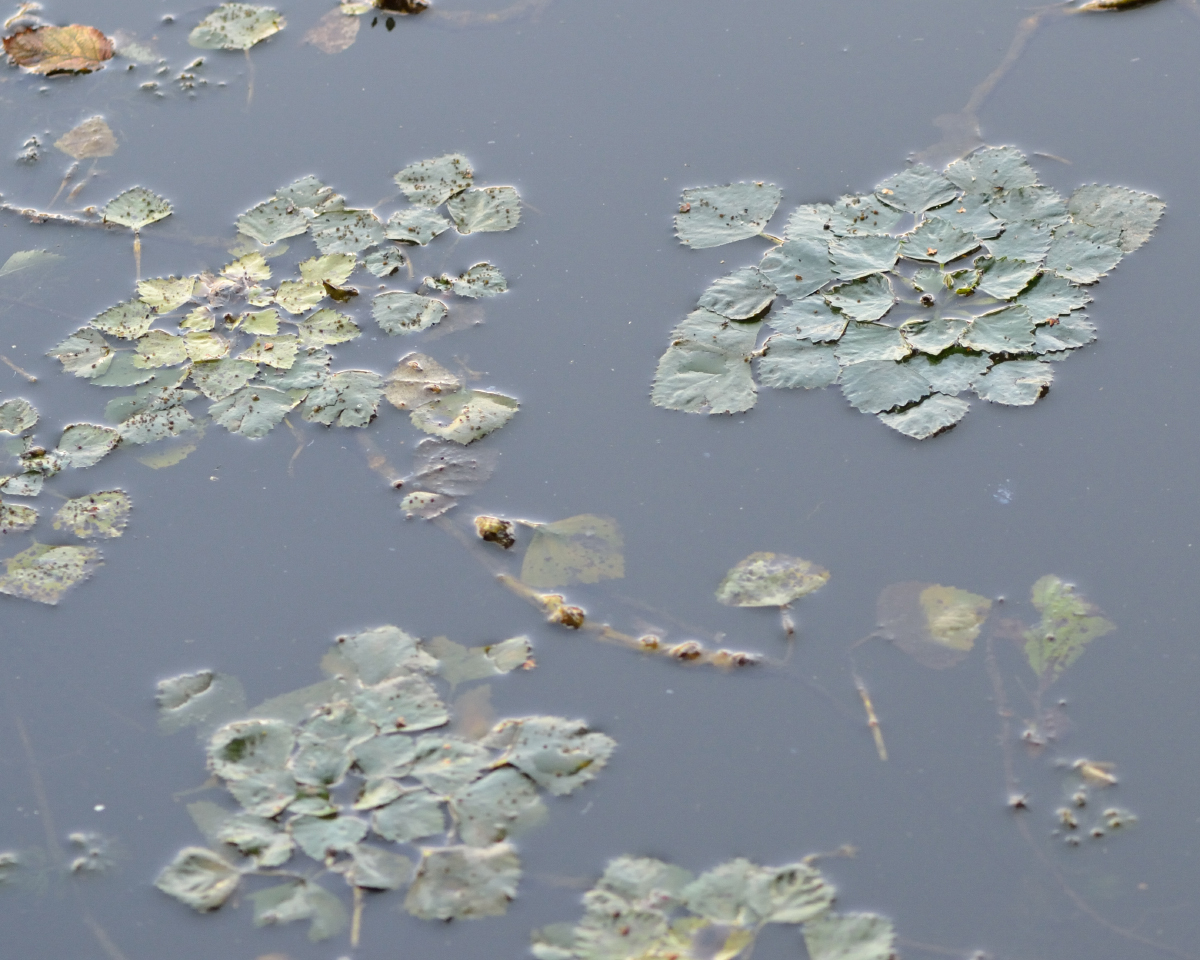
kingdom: Plantae
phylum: Tracheophyta
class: Magnoliopsida
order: Myrtales
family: Lythraceae
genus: Trapa
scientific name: Trapa natans
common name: Water chestnut
